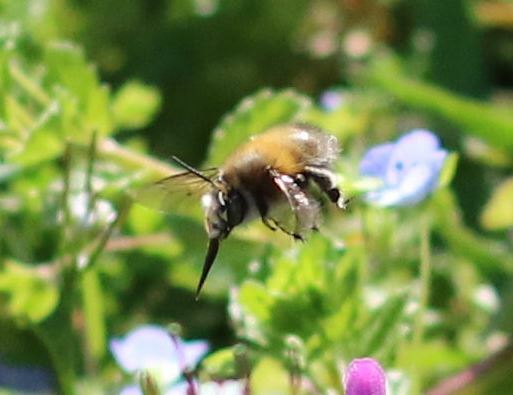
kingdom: Animalia
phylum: Arthropoda
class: Insecta
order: Hymenoptera
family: Apidae
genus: Anthophora
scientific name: Anthophora plumipes
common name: Hairy-footed flower bee
